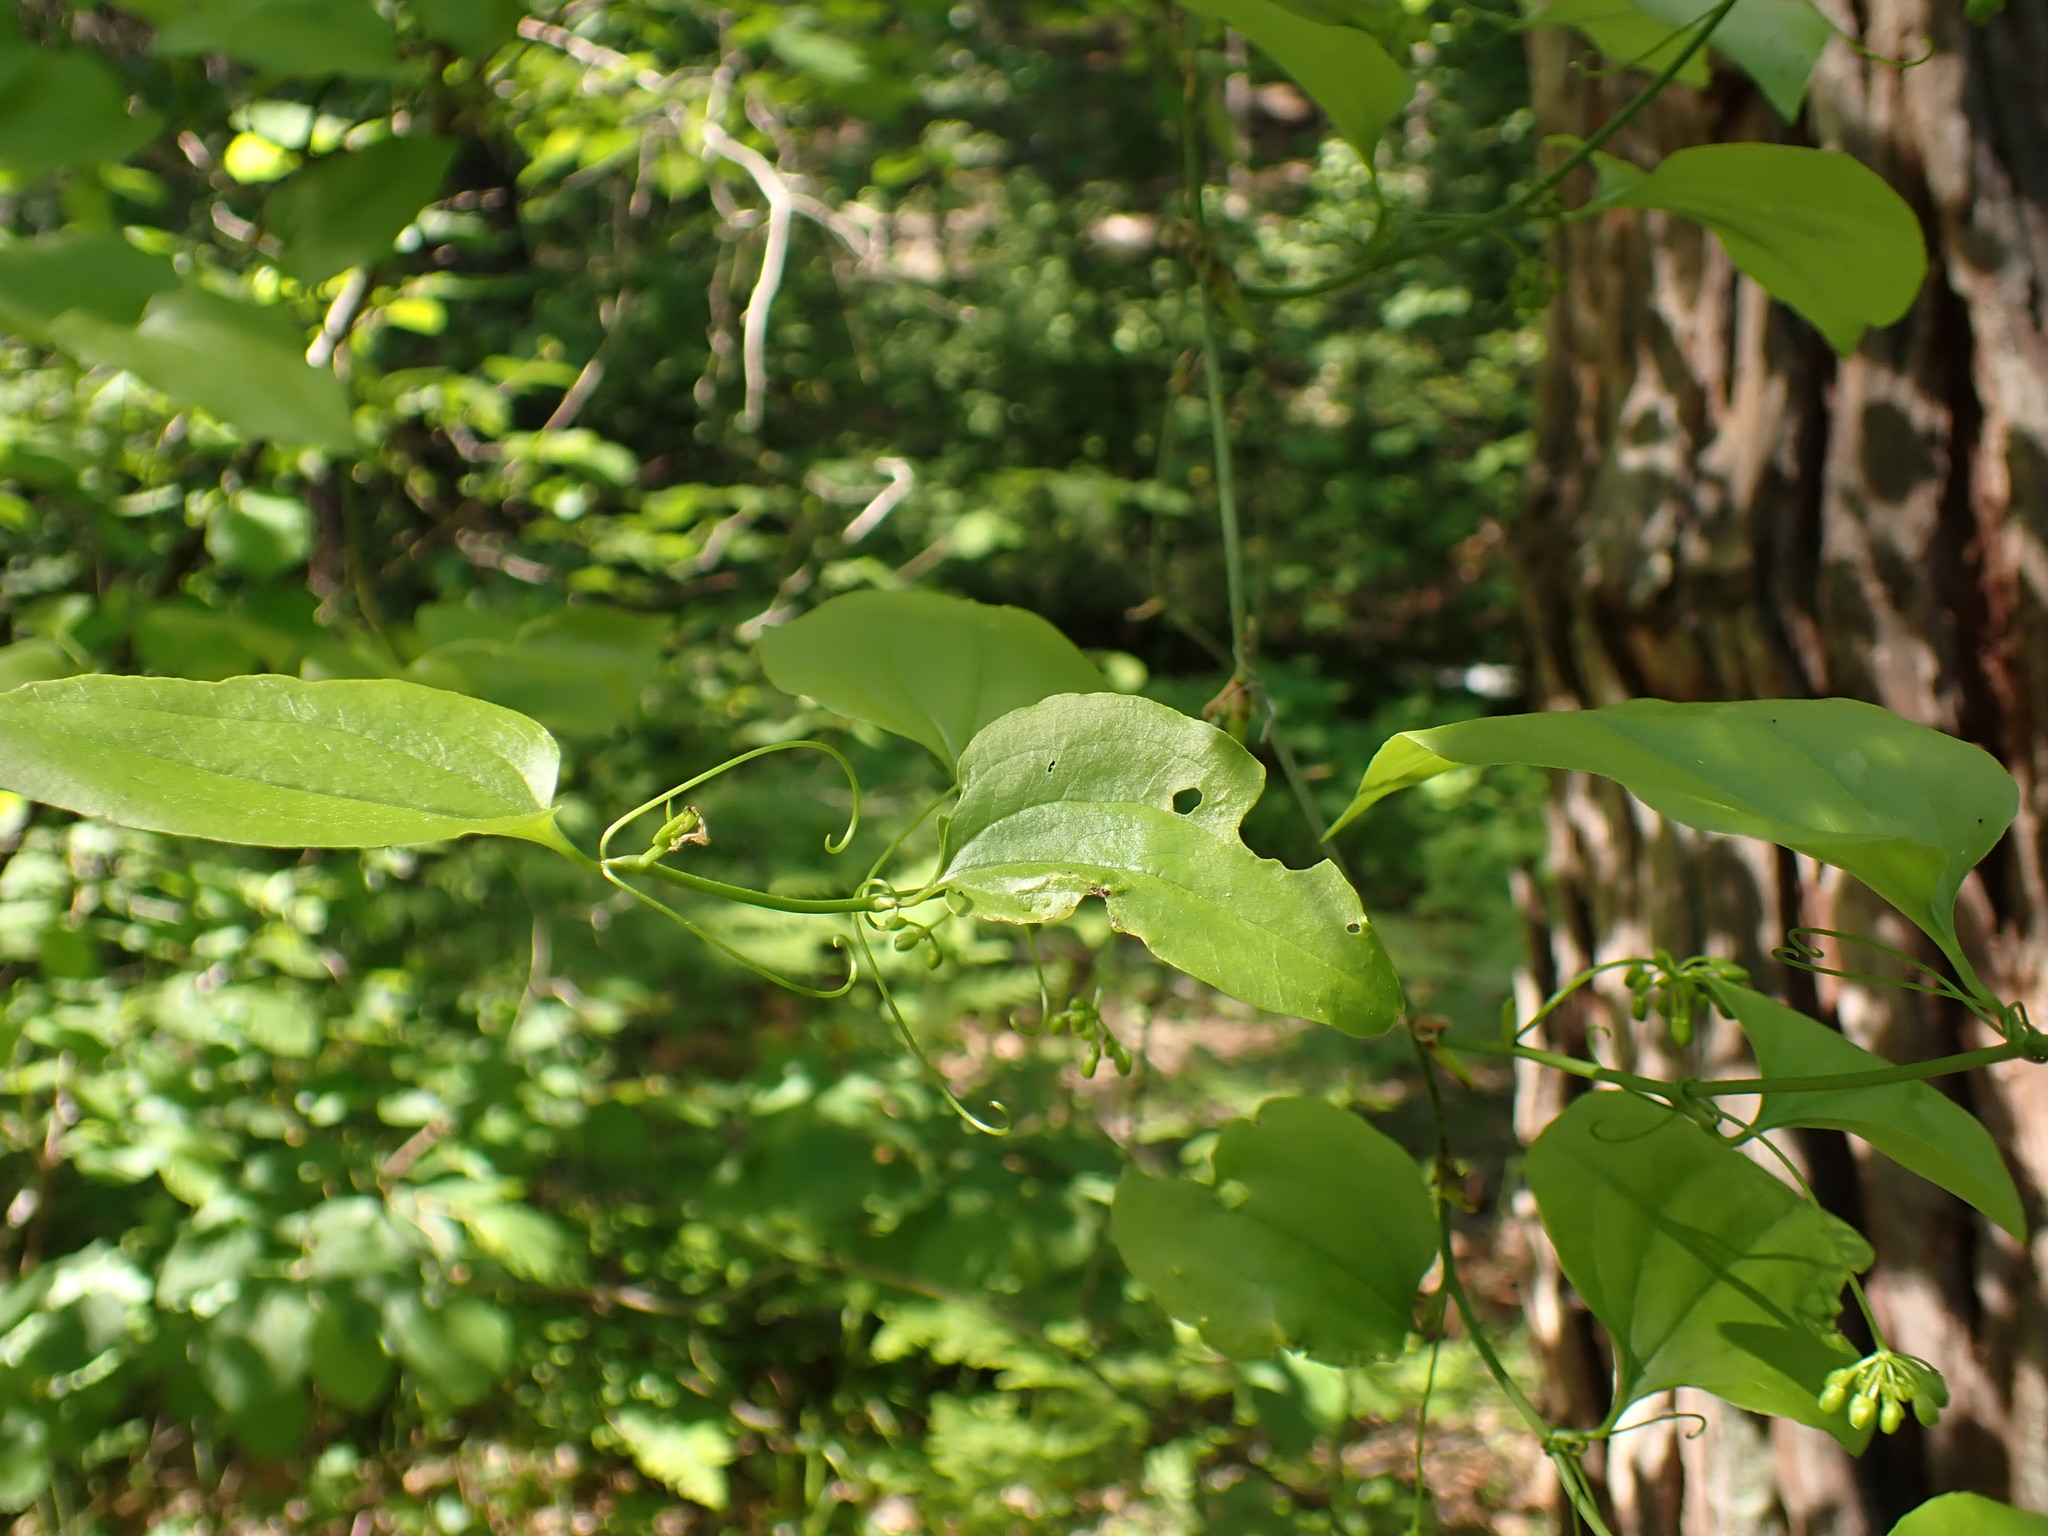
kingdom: Plantae
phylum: Tracheophyta
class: Liliopsida
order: Liliales
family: Smilacaceae
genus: Smilax
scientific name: Smilax californica
